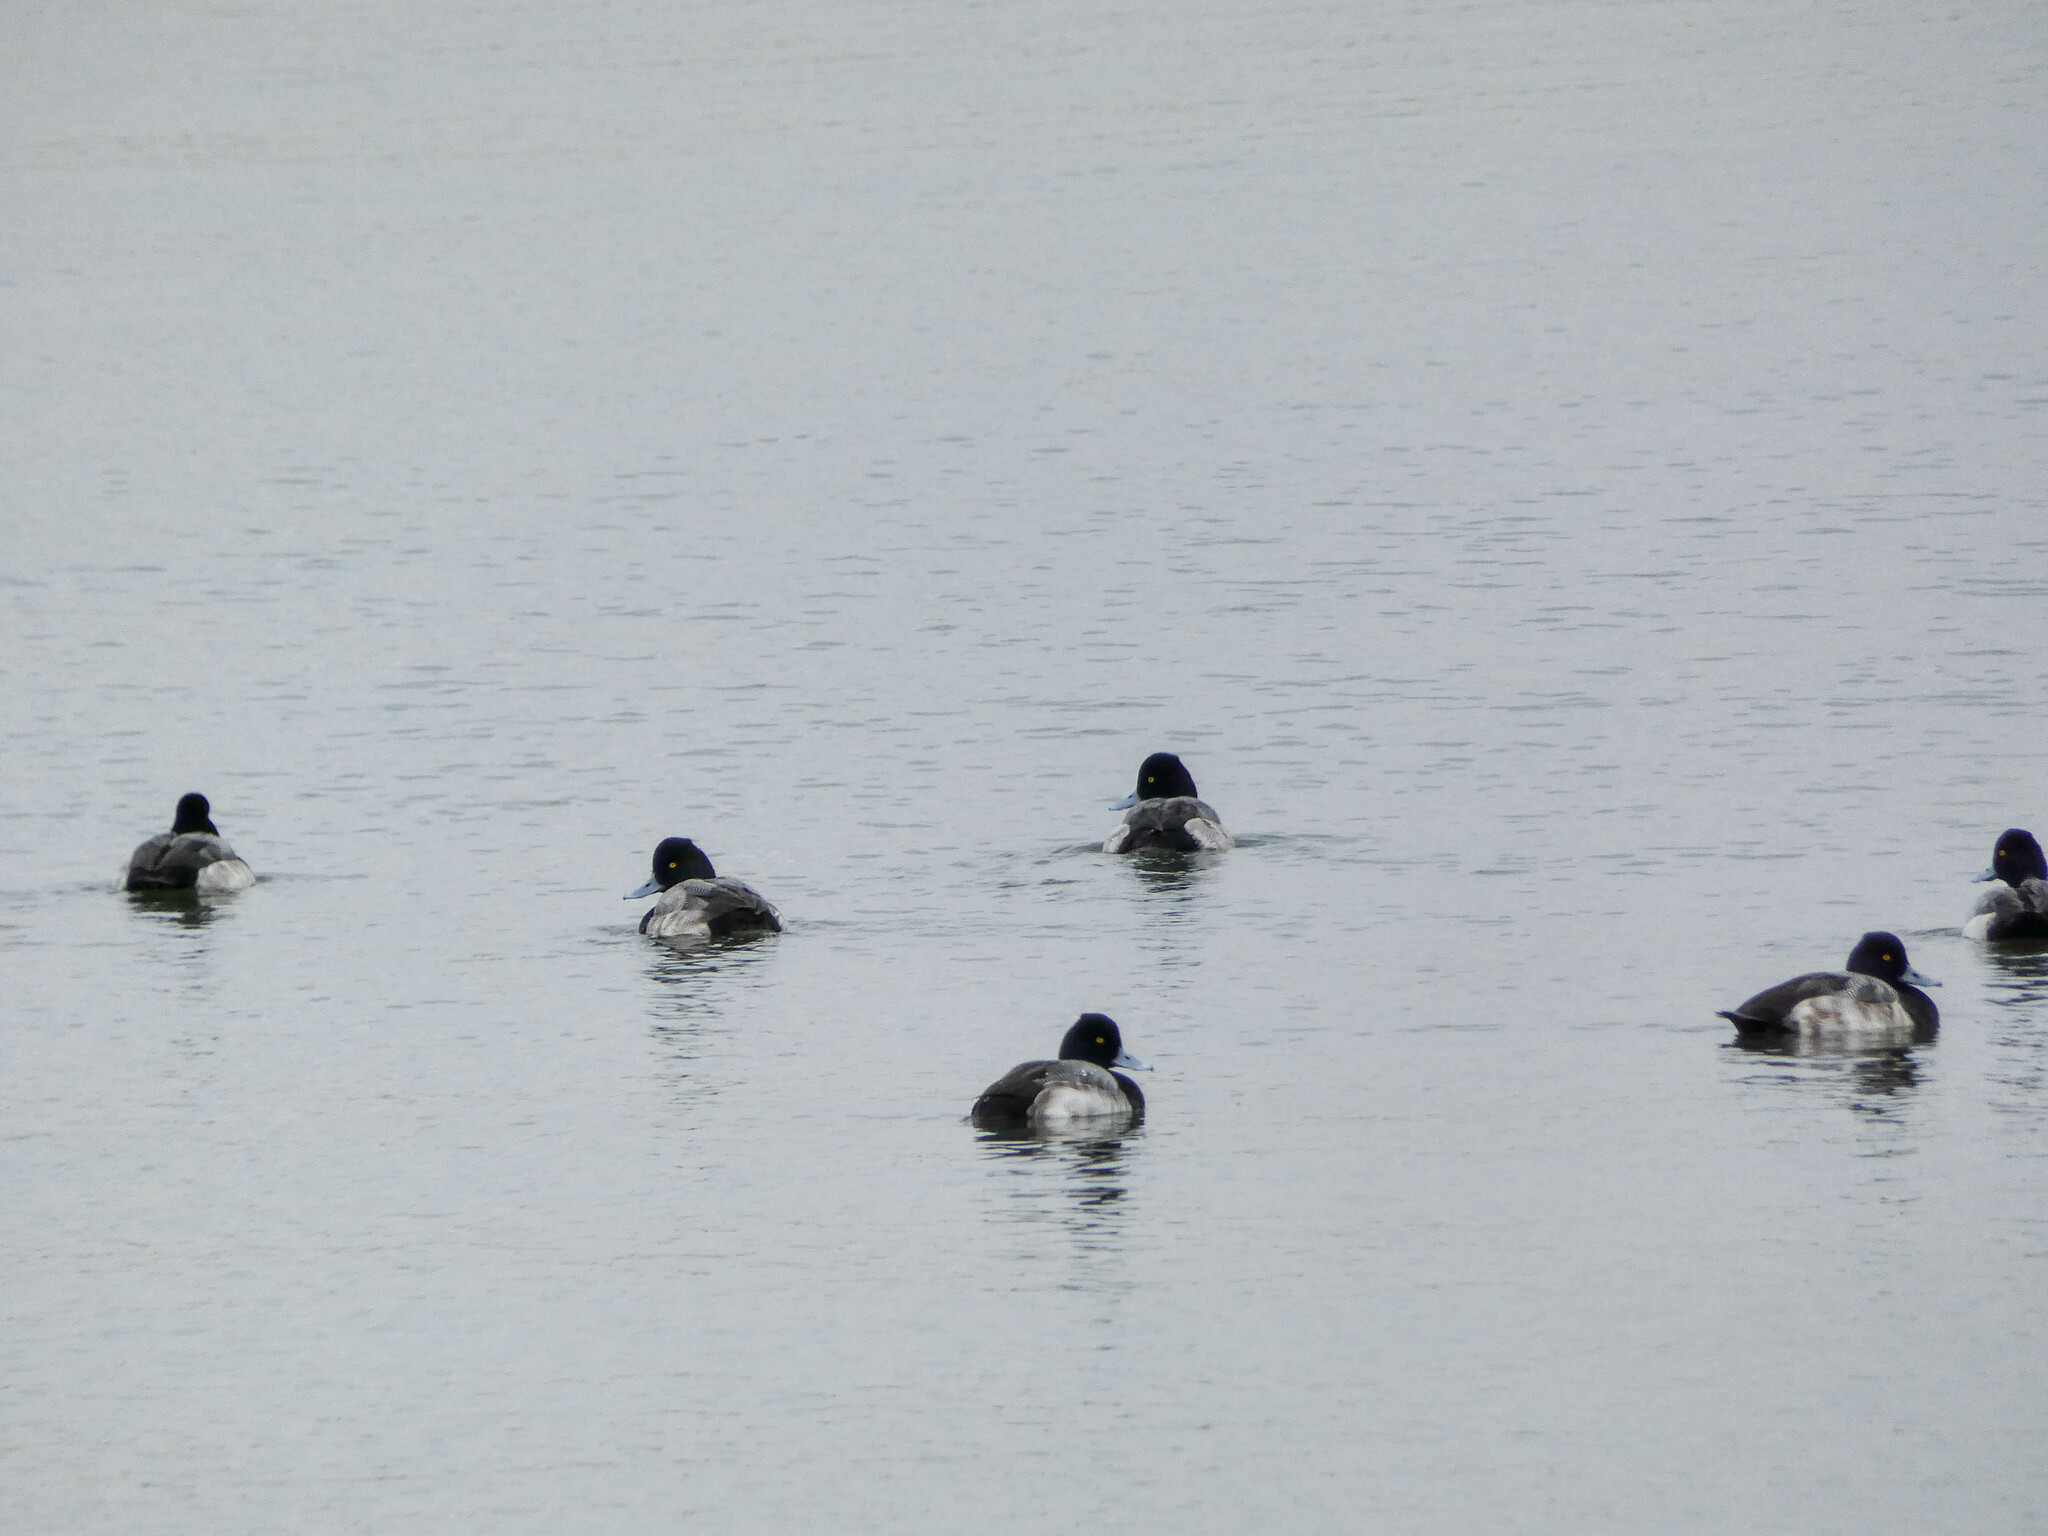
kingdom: Animalia
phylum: Chordata
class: Aves
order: Anseriformes
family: Anatidae
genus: Aythya
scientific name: Aythya affinis
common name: Lesser scaup
